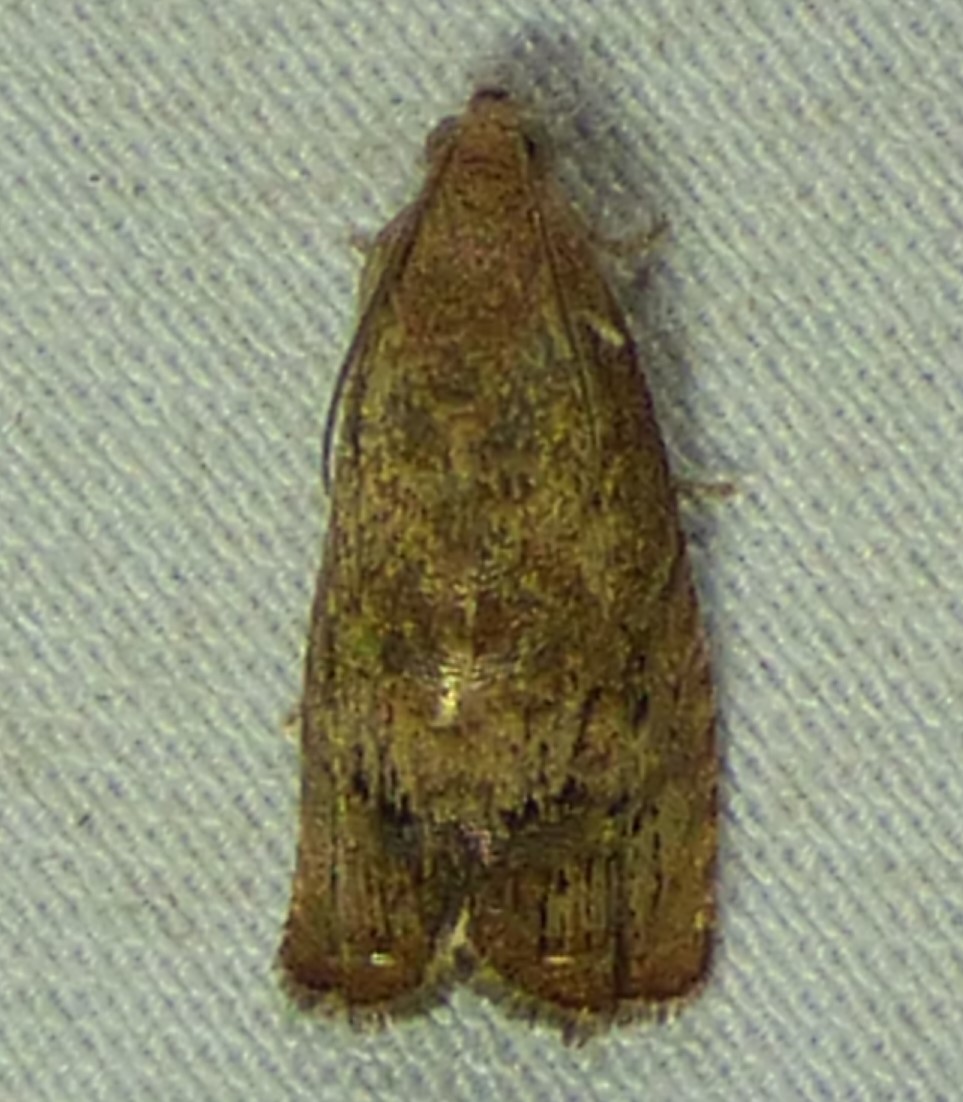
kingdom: Animalia
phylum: Arthropoda
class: Insecta
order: Lepidoptera
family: Tortricidae
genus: Cydia
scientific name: Cydia latiferreana
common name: Filbertworm moth
